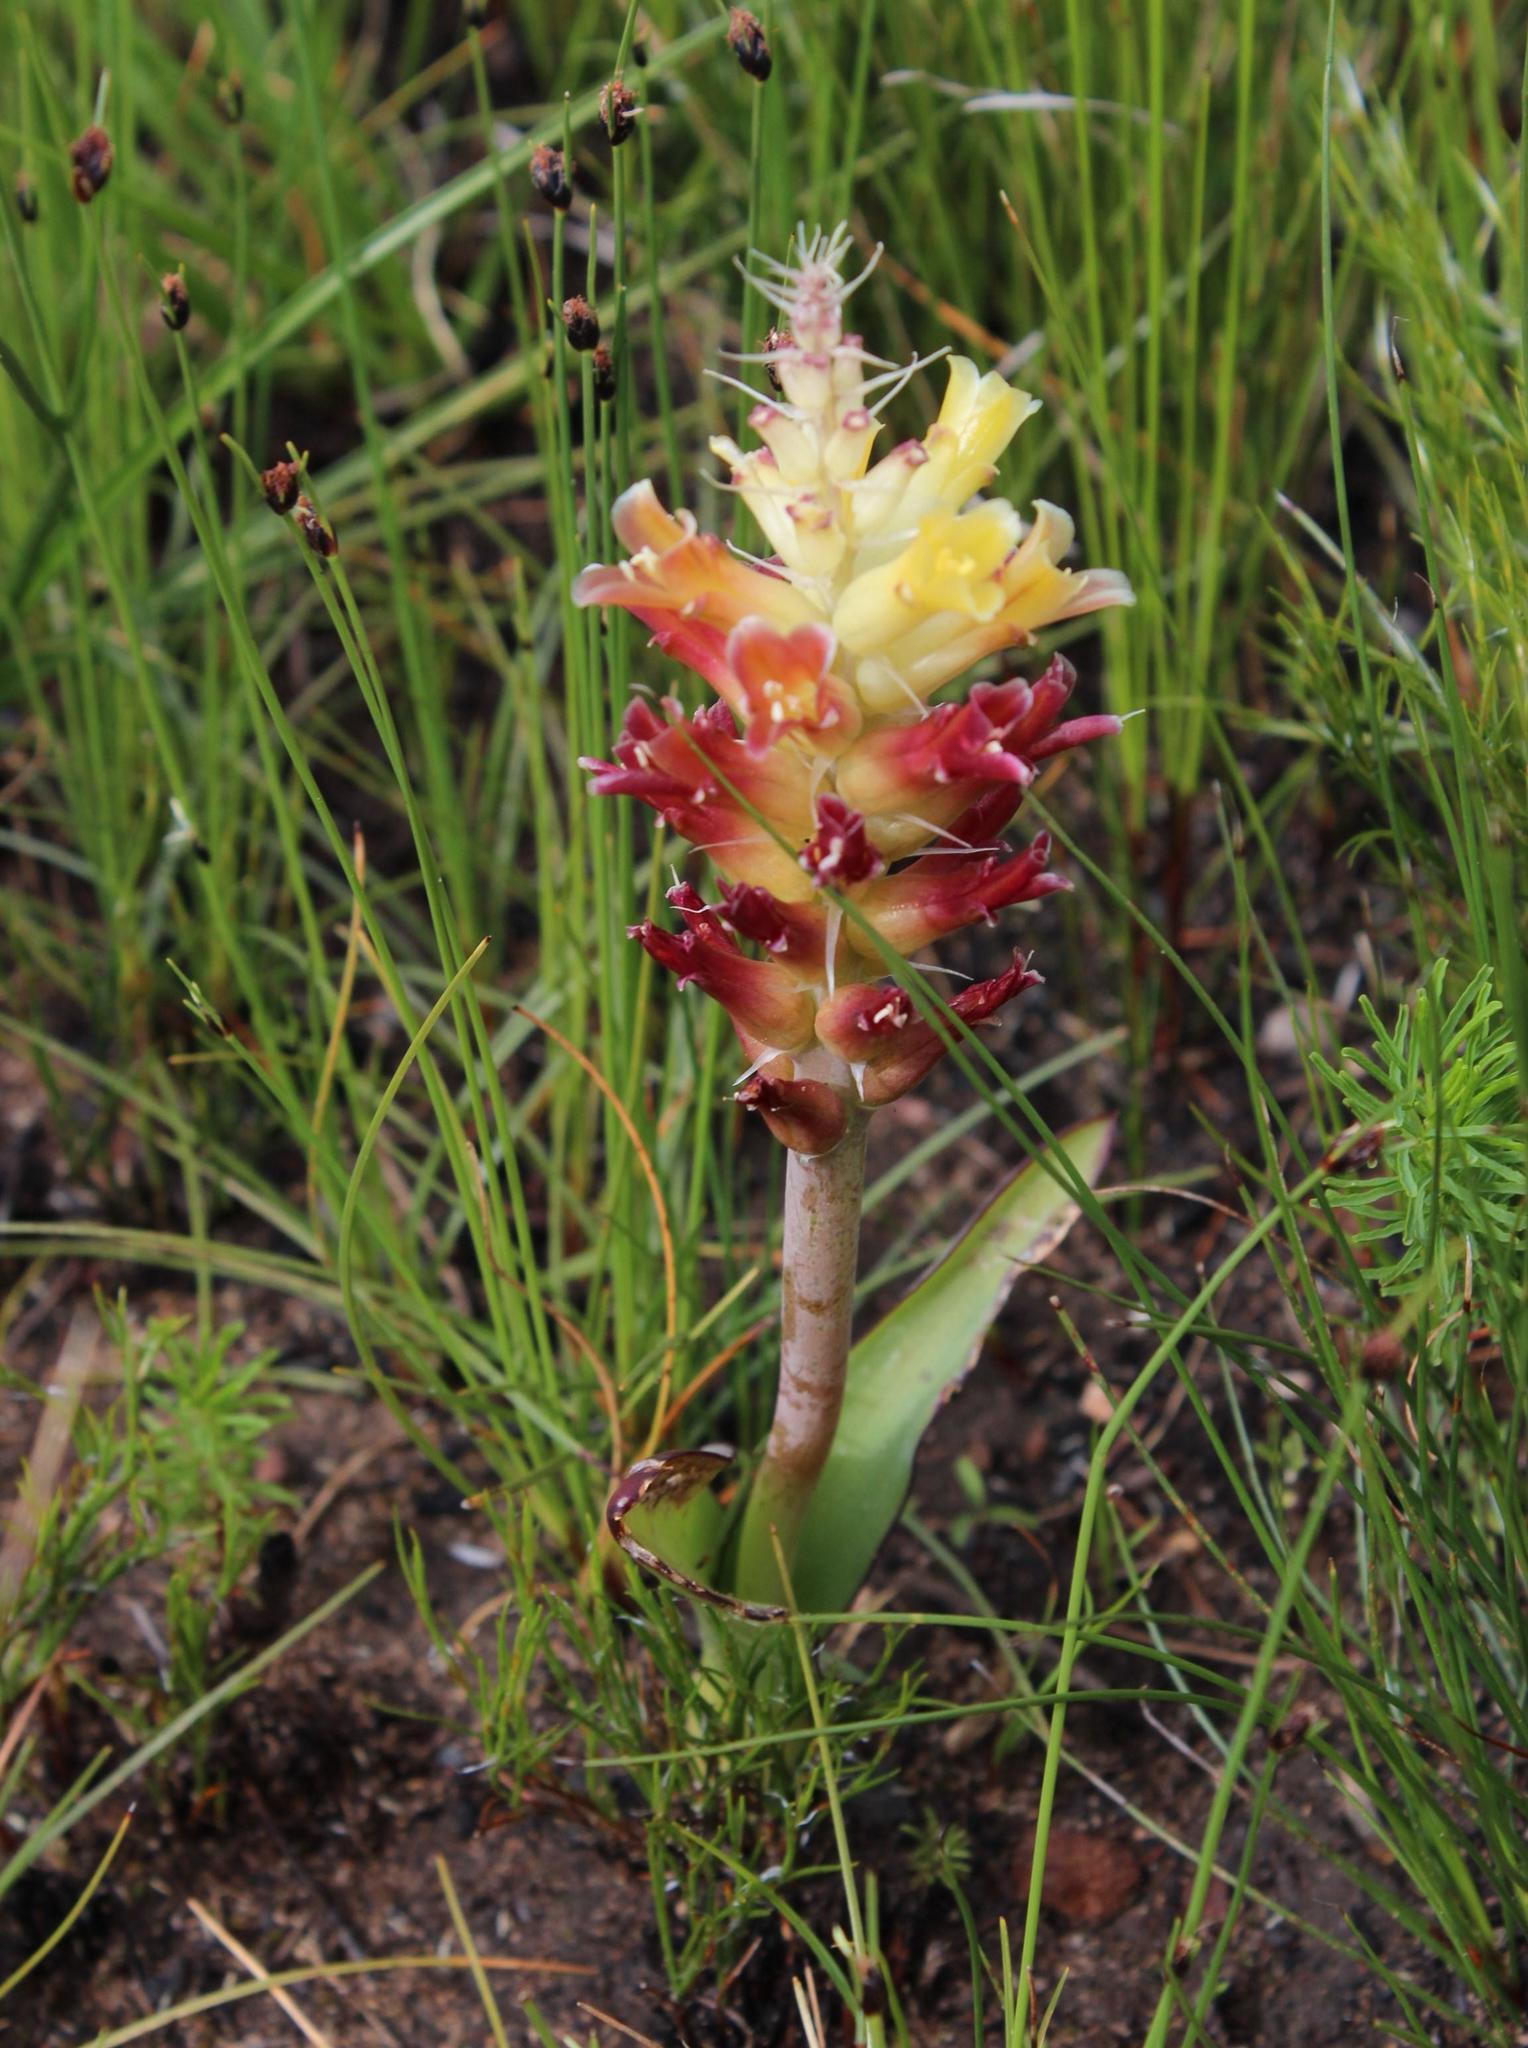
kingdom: Plantae
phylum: Tracheophyta
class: Liliopsida
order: Asparagales
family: Asparagaceae
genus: Lachenalia
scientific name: Lachenalia orchioides
